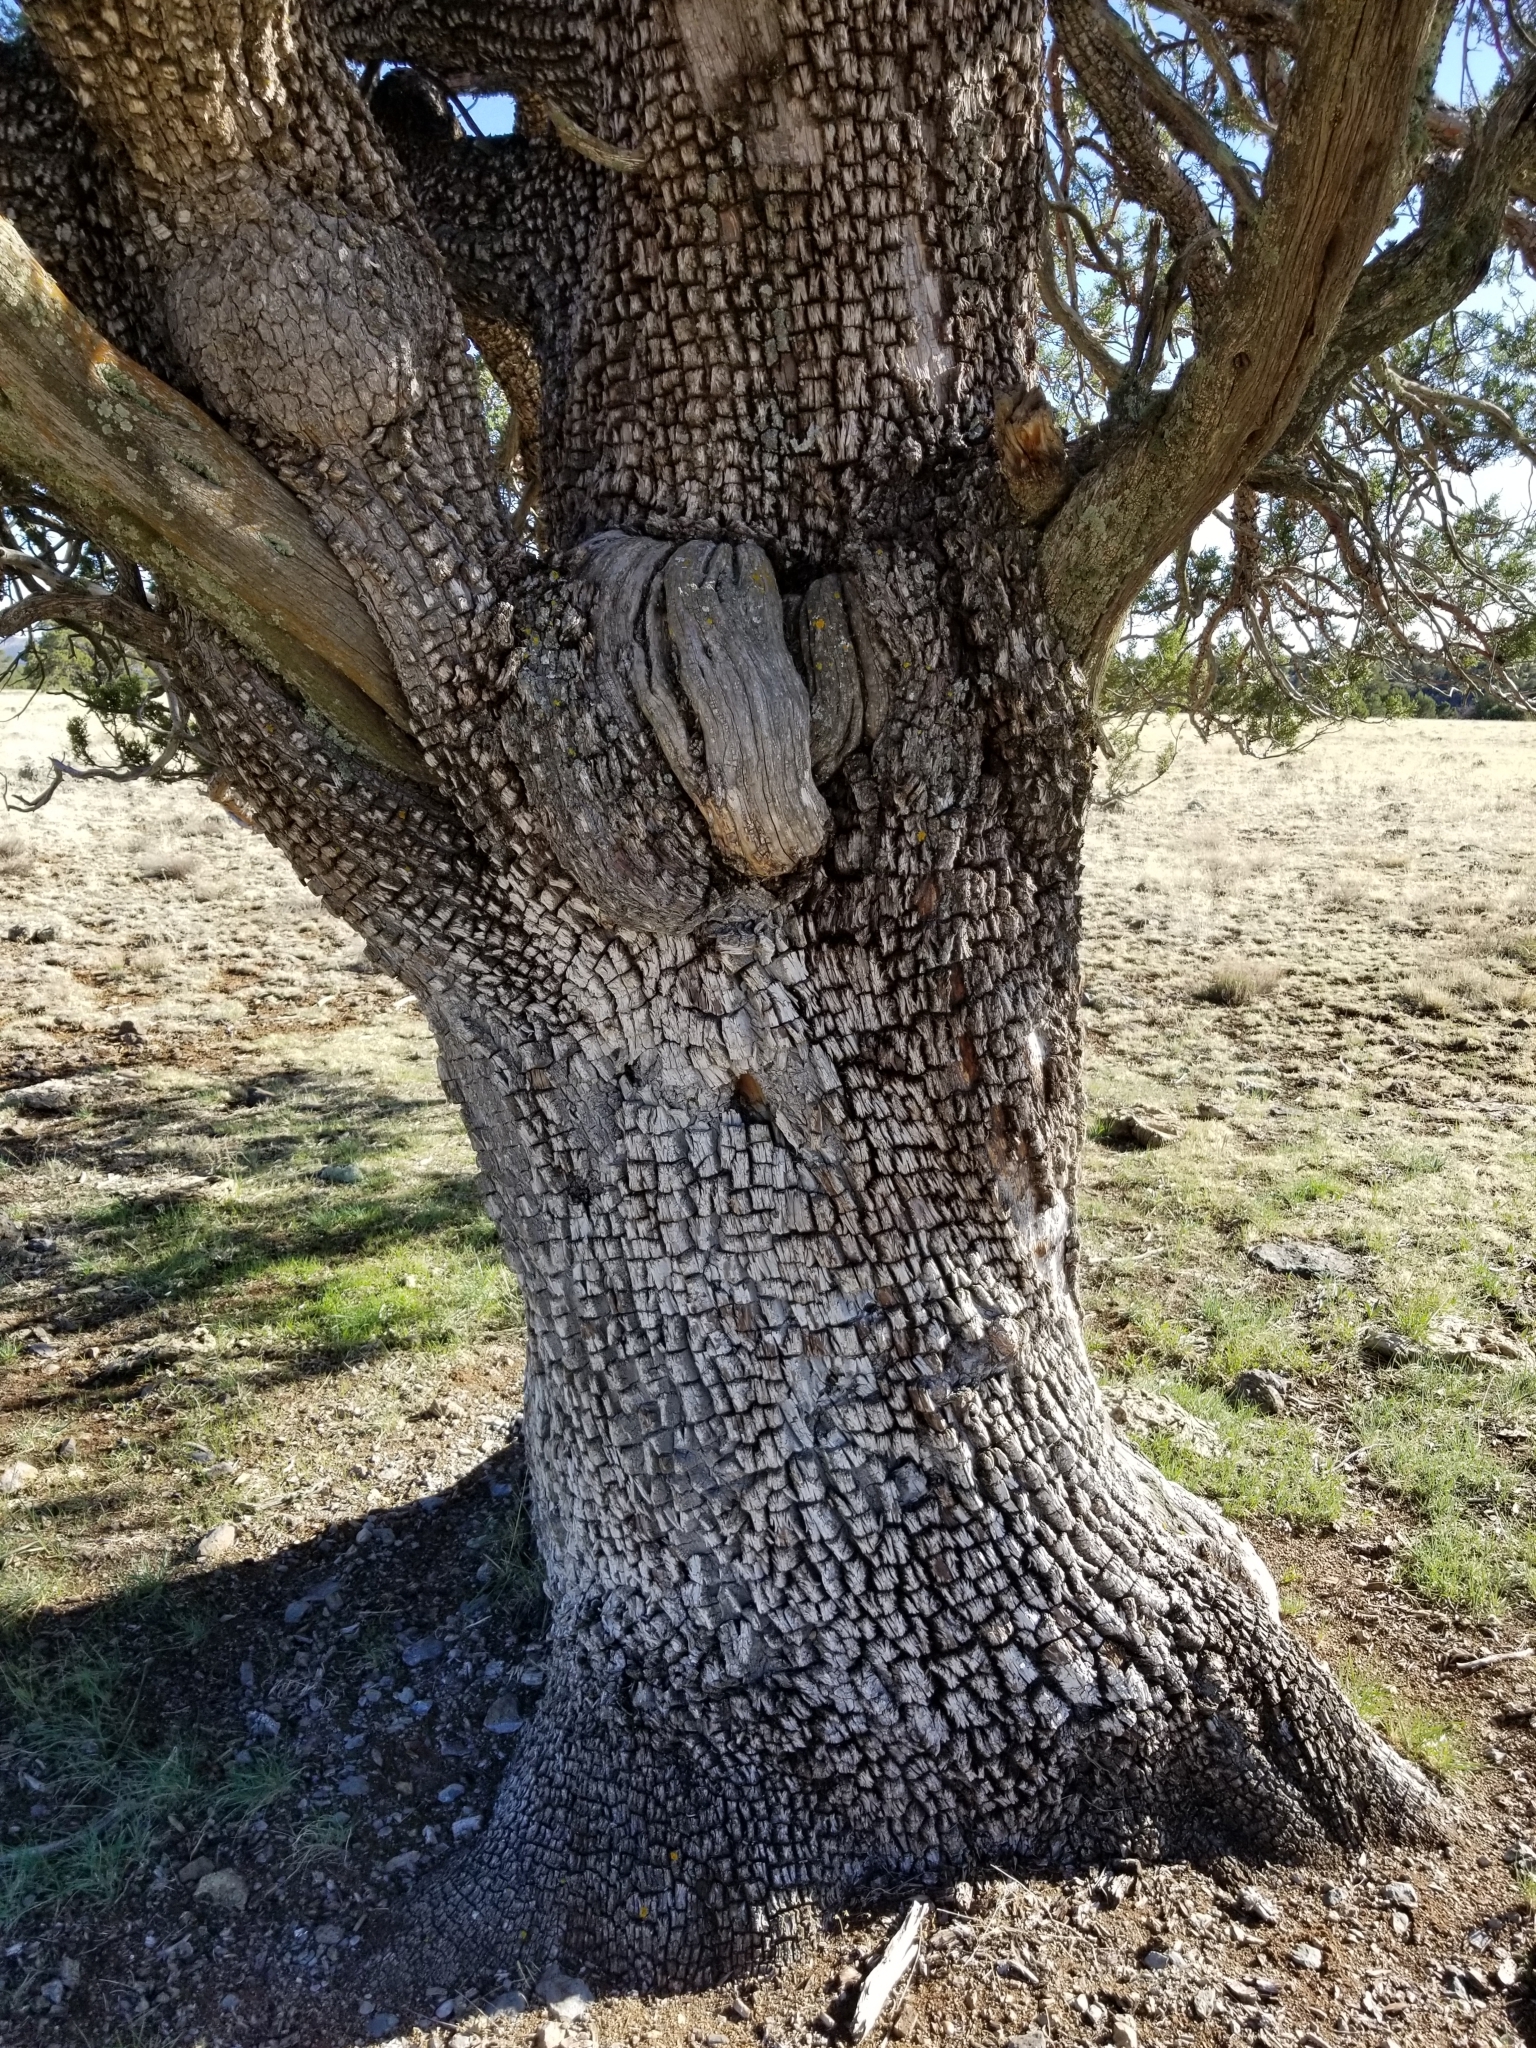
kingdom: Plantae
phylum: Tracheophyta
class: Pinopsida
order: Pinales
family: Cupressaceae
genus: Juniperus
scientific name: Juniperus deppeana
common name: Alligator juniper
